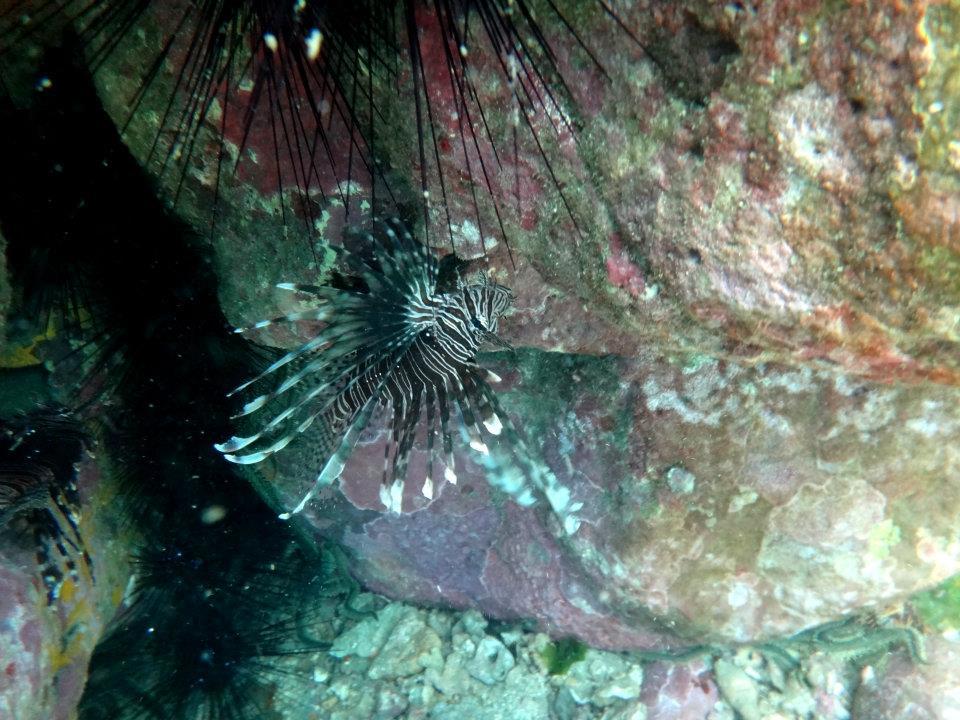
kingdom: Animalia
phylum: Chordata
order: Scorpaeniformes
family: Scorpaenidae
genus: Pterois
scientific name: Pterois volitans
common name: Lionfish
